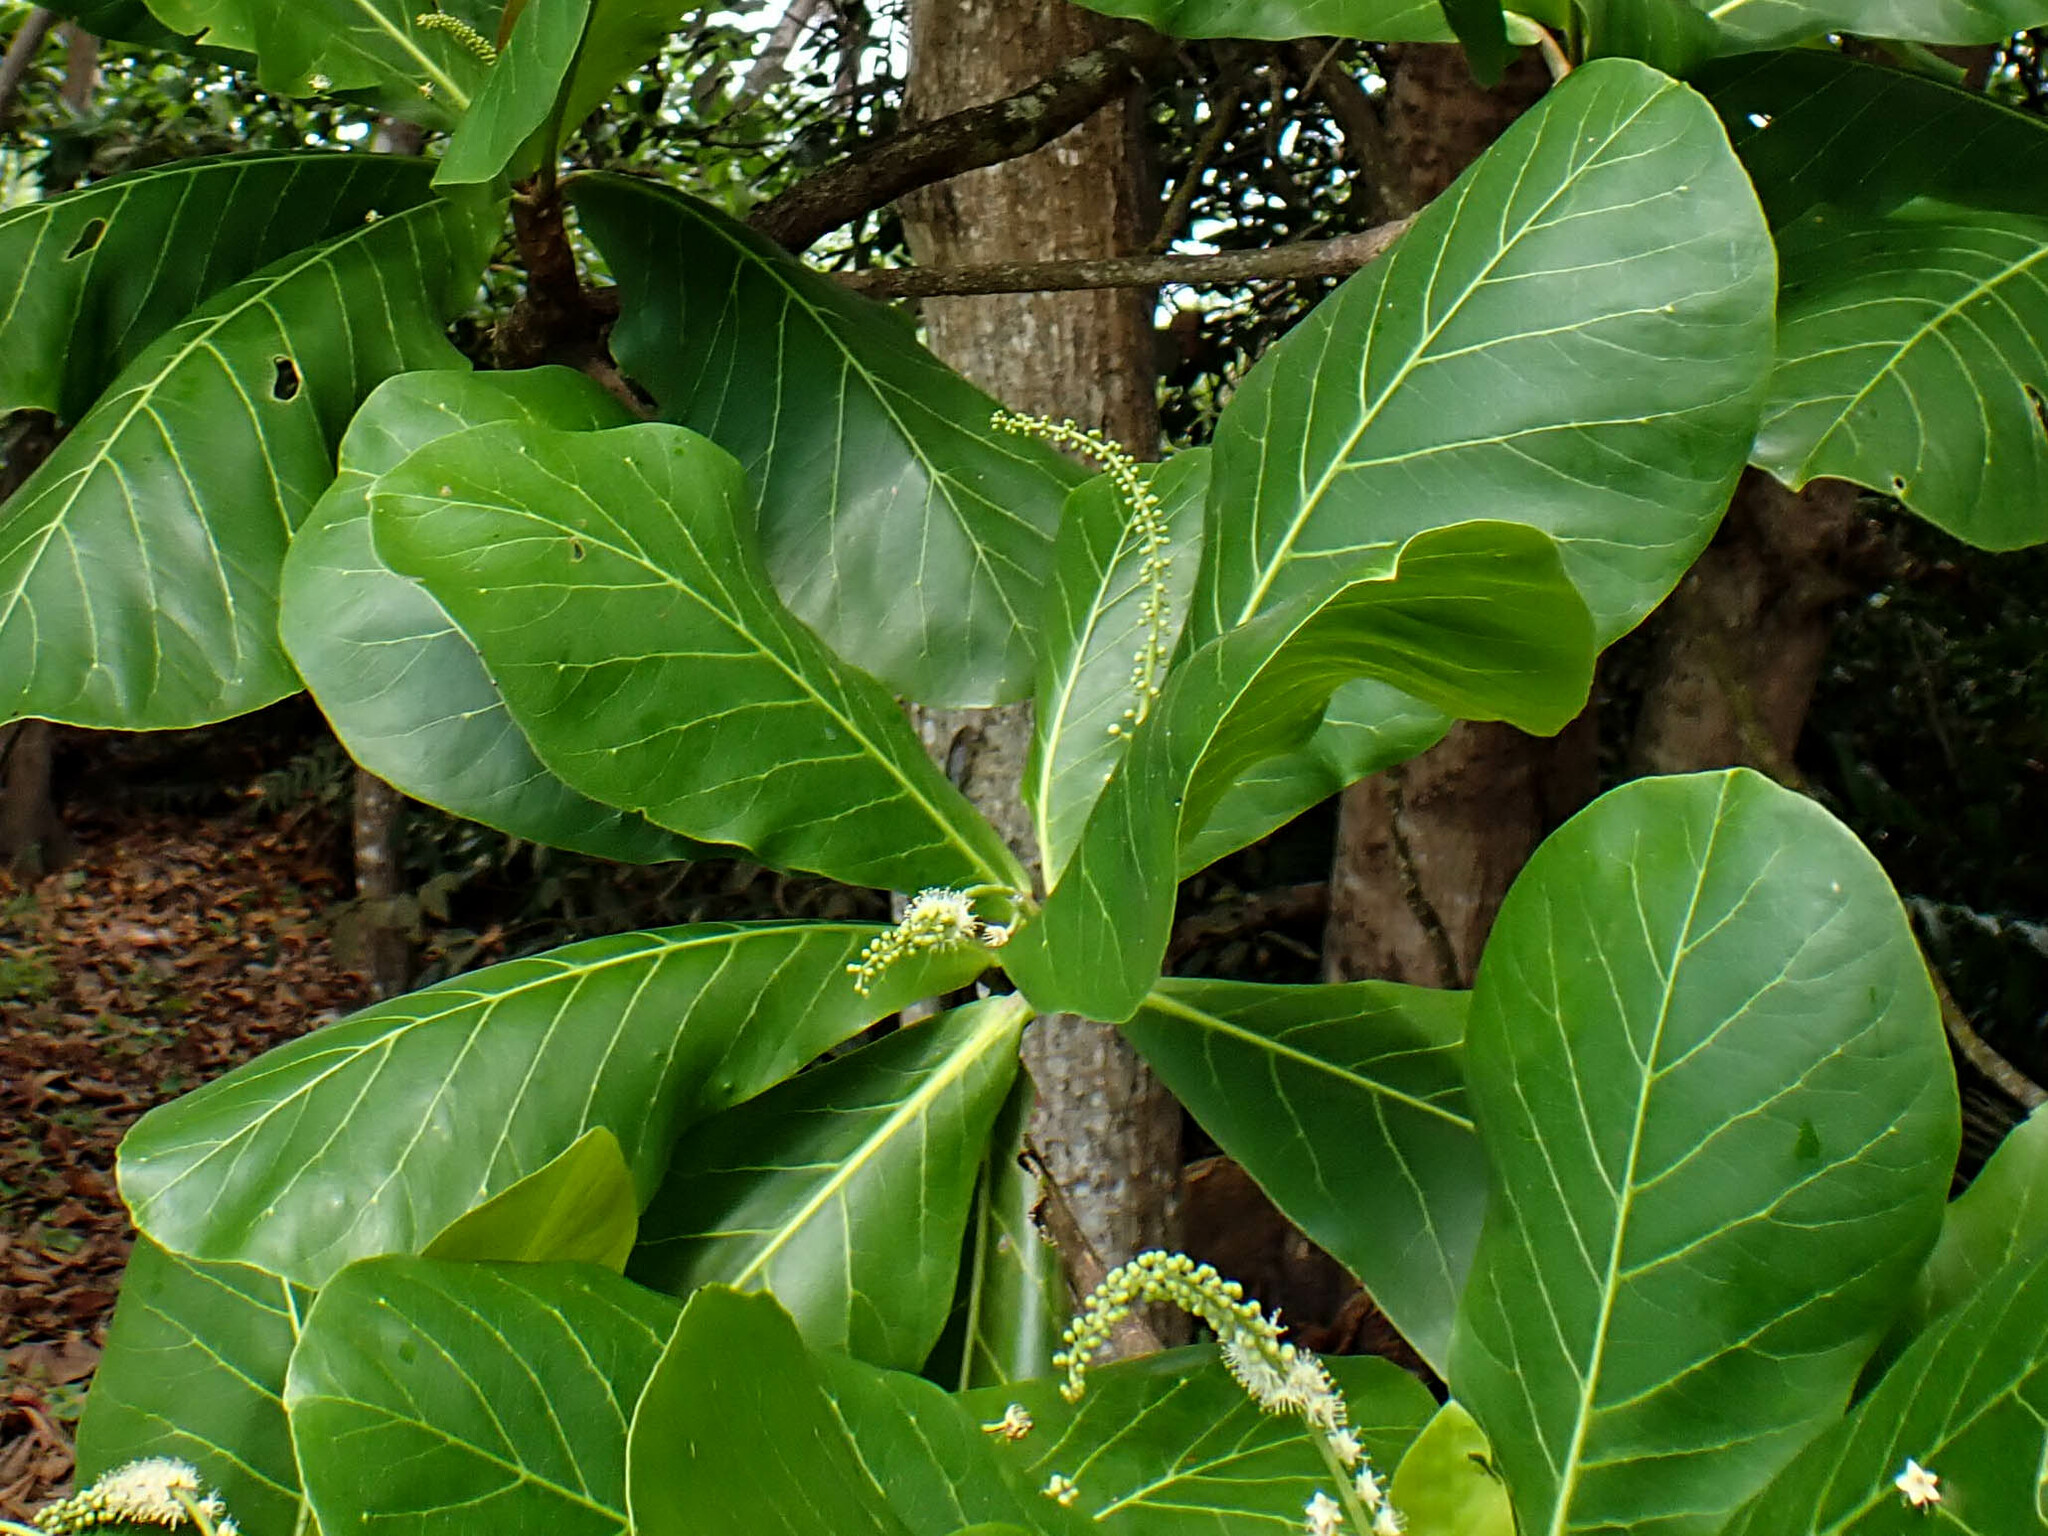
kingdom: Plantae
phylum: Tracheophyta
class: Magnoliopsida
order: Myrtales
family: Combretaceae
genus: Terminalia
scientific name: Terminalia catappa
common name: Tropical almond
